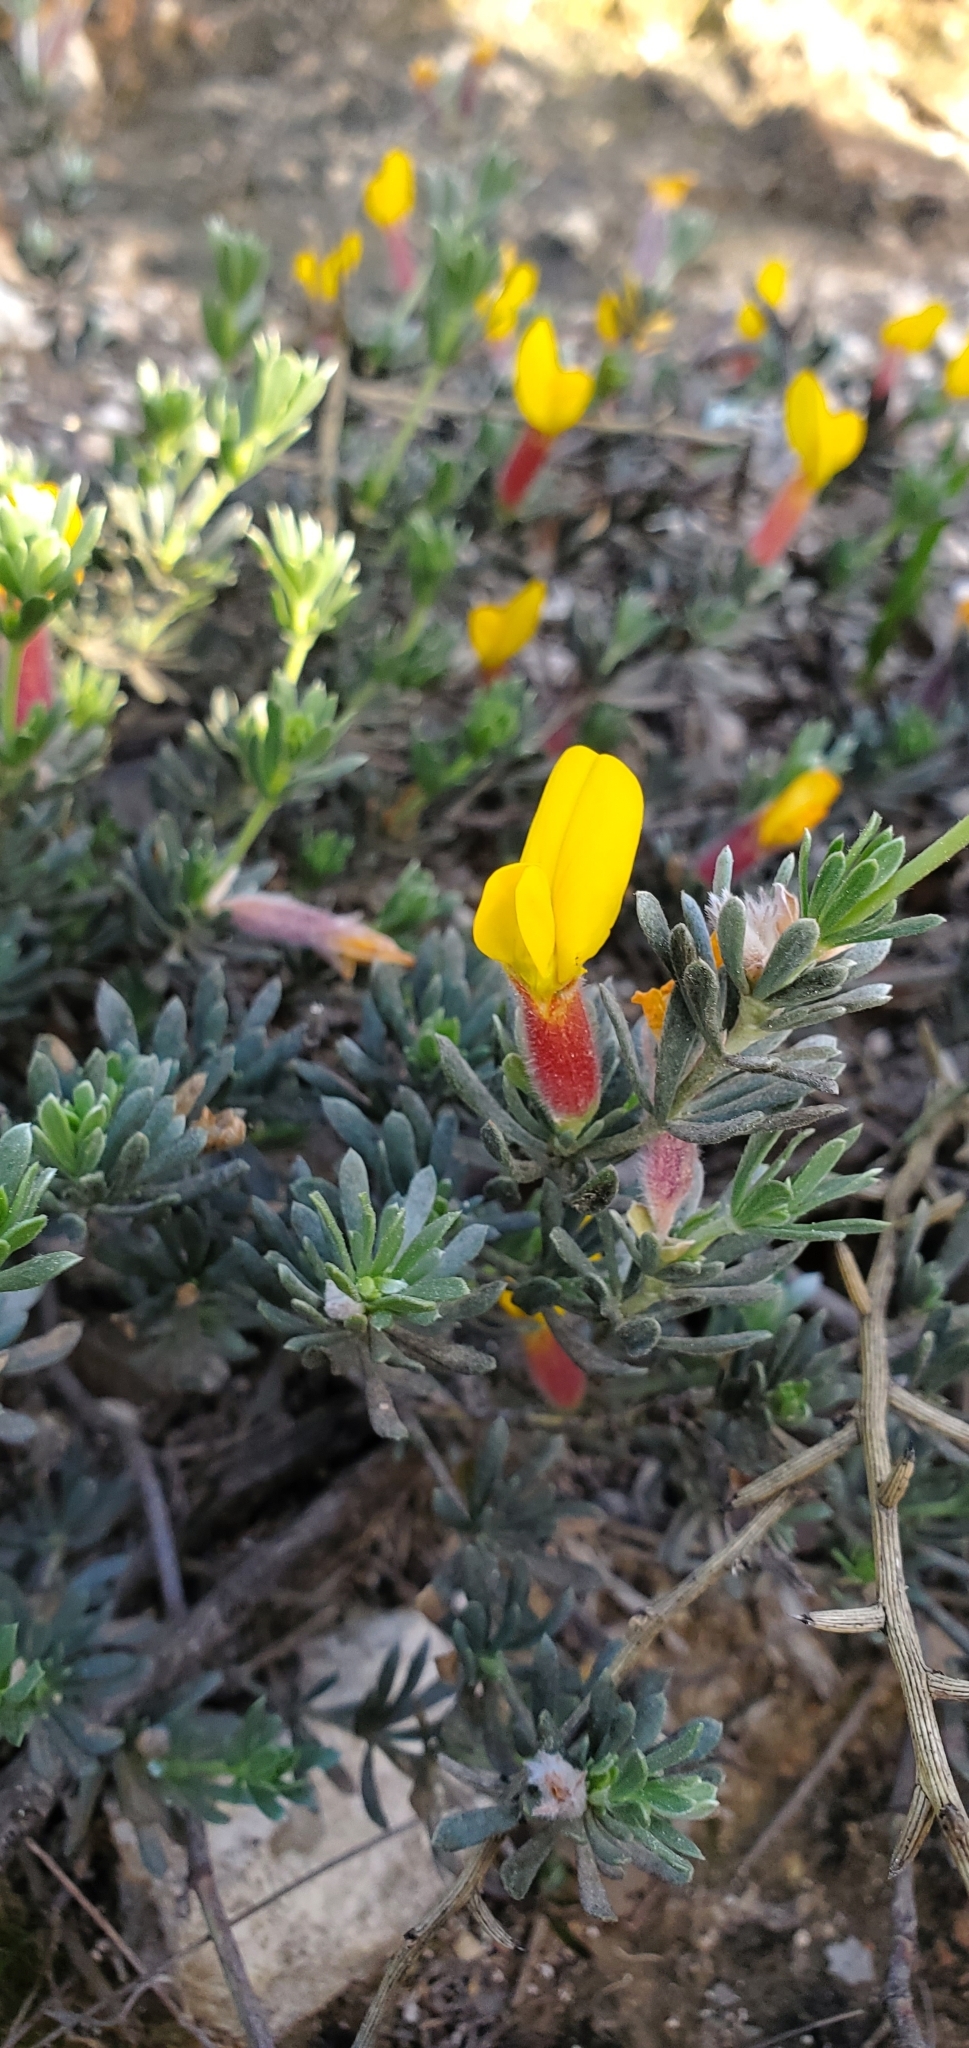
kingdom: Plantae
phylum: Tracheophyta
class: Magnoliopsida
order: Fabales
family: Fabaceae
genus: Cytisopsis
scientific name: Cytisopsis pseudocytisus
